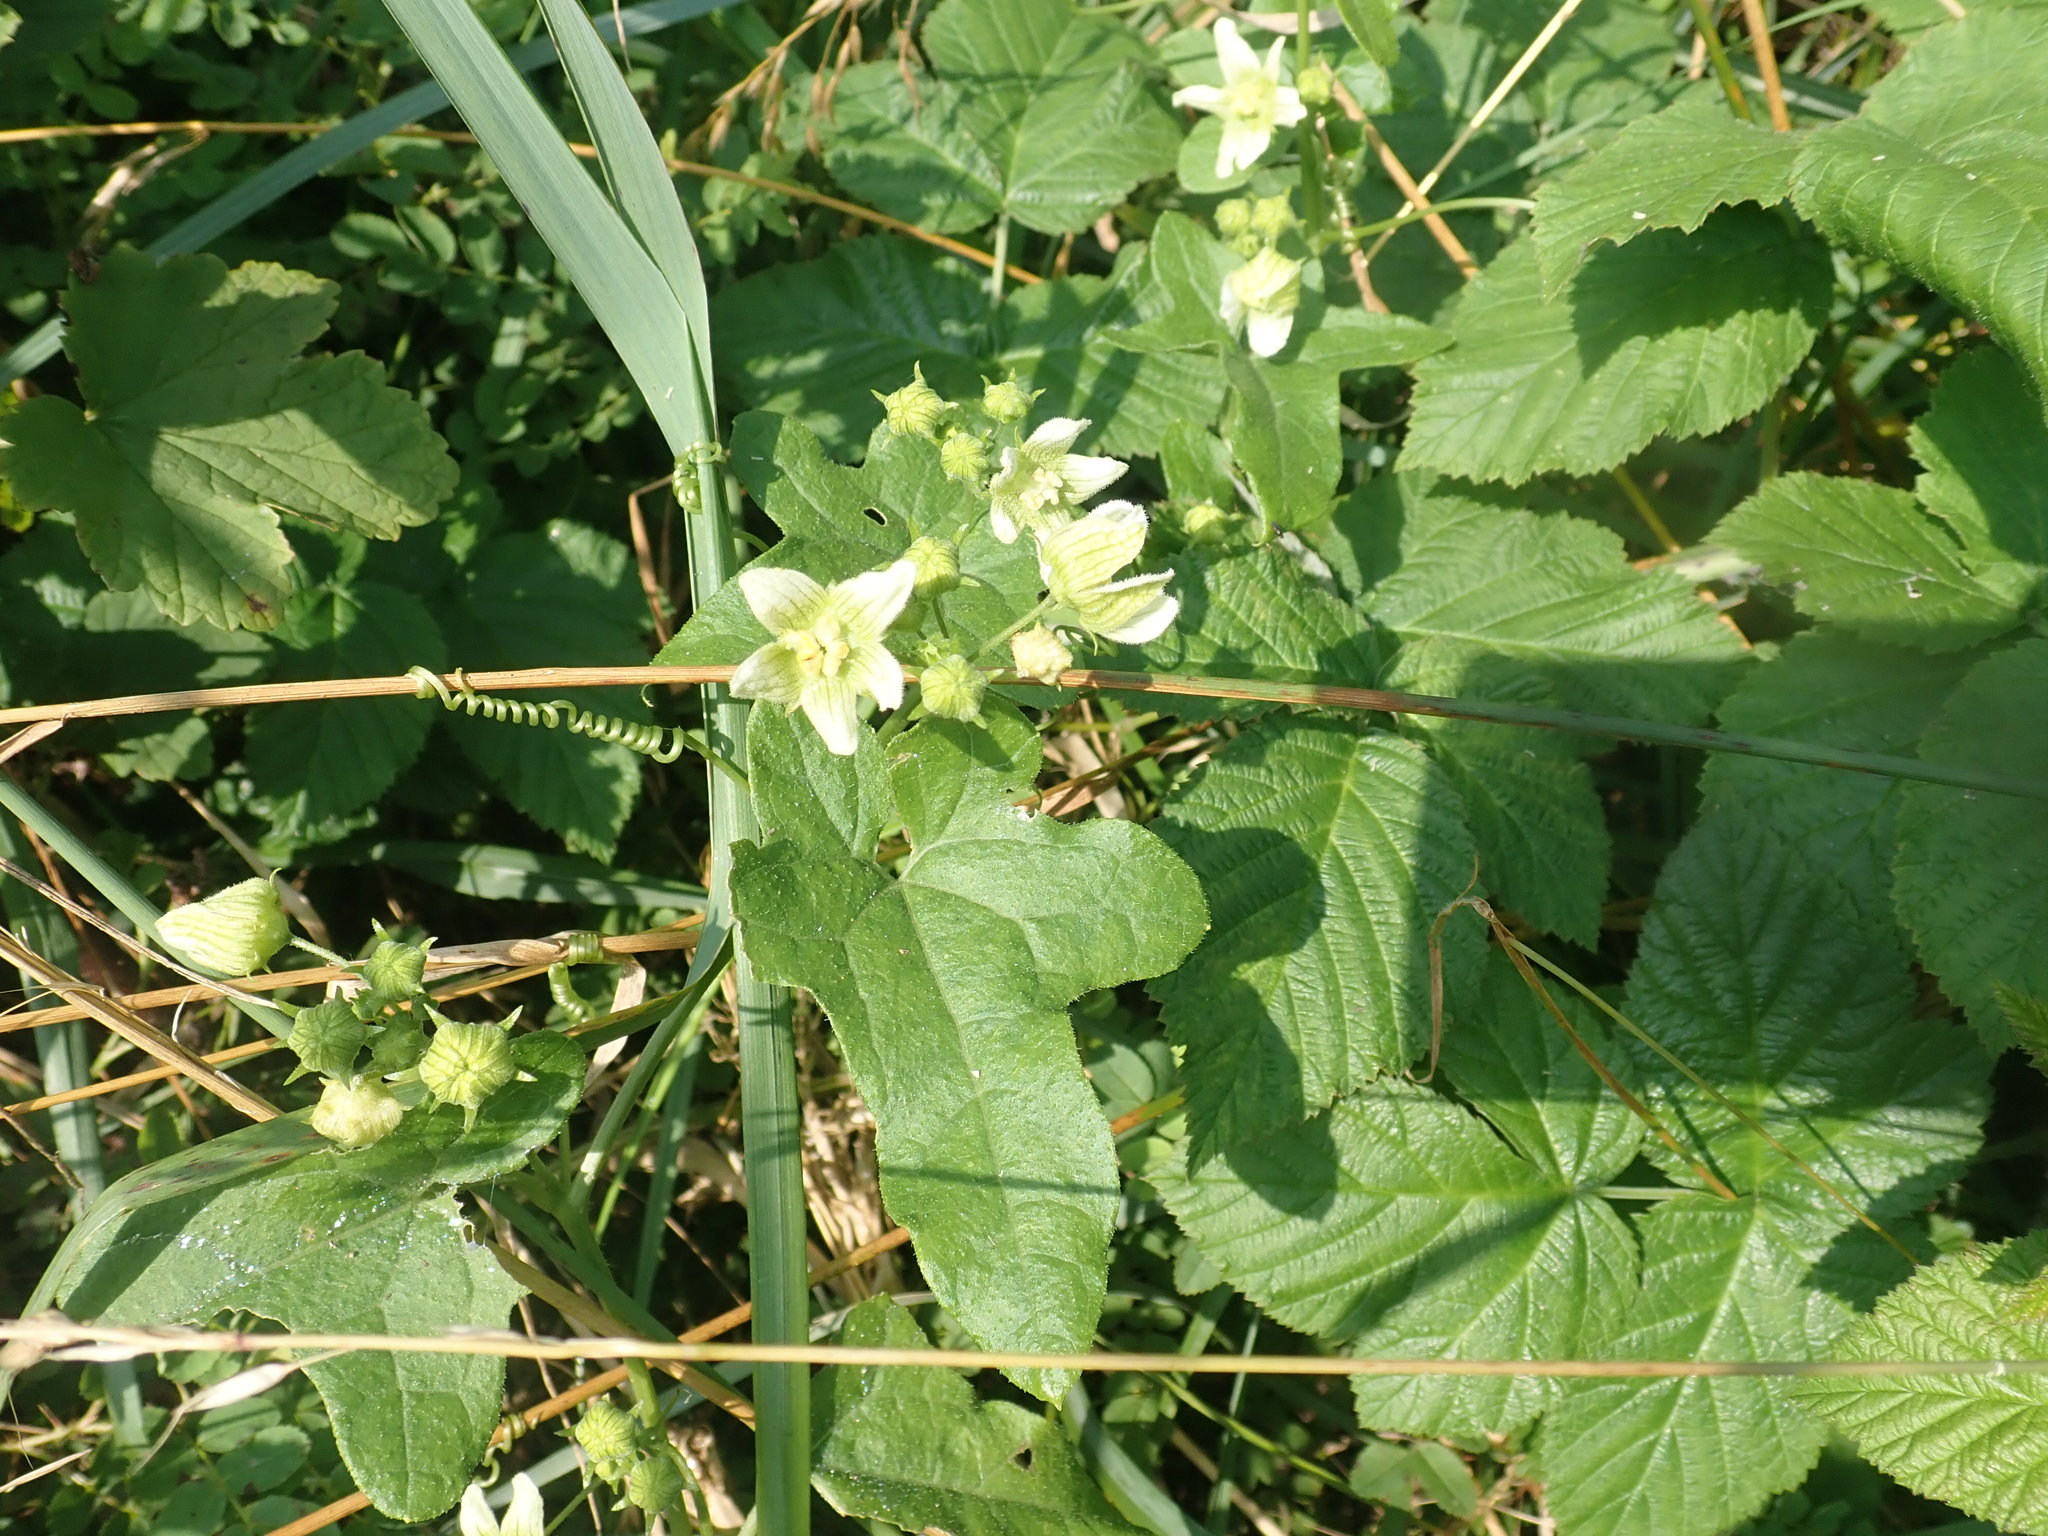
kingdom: Plantae
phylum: Tracheophyta
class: Magnoliopsida
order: Cucurbitales
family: Cucurbitaceae
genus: Bryonia
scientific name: Bryonia cretica
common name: Cretan bryony
